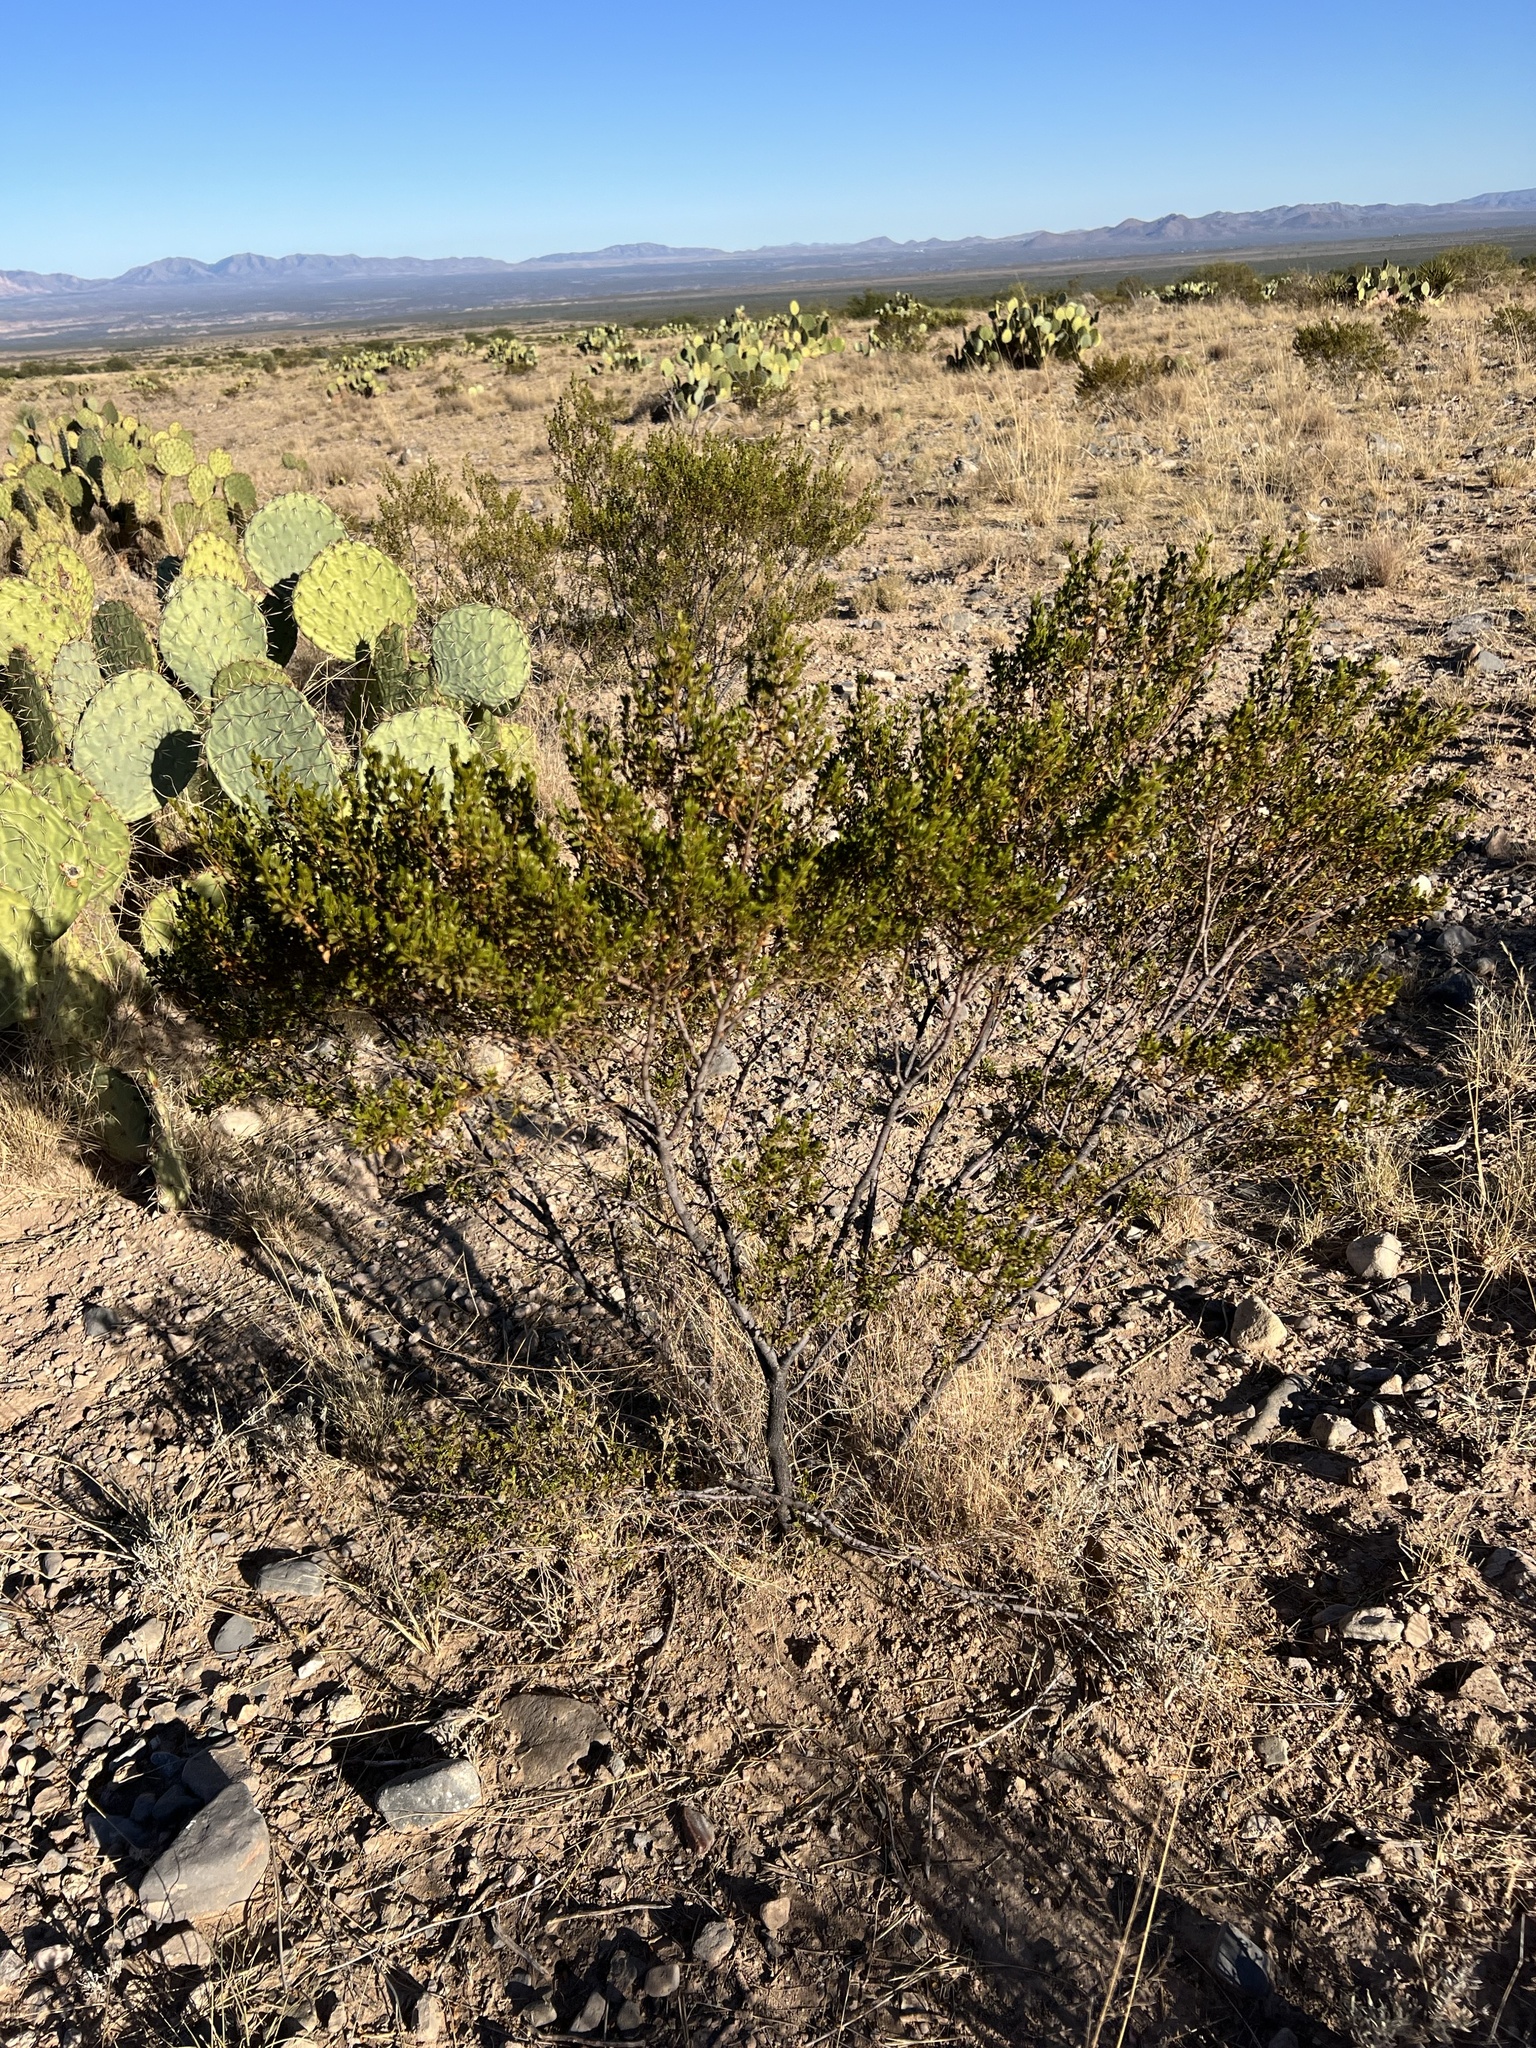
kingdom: Plantae
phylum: Tracheophyta
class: Magnoliopsida
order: Zygophyllales
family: Zygophyllaceae
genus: Larrea
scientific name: Larrea tridentata
